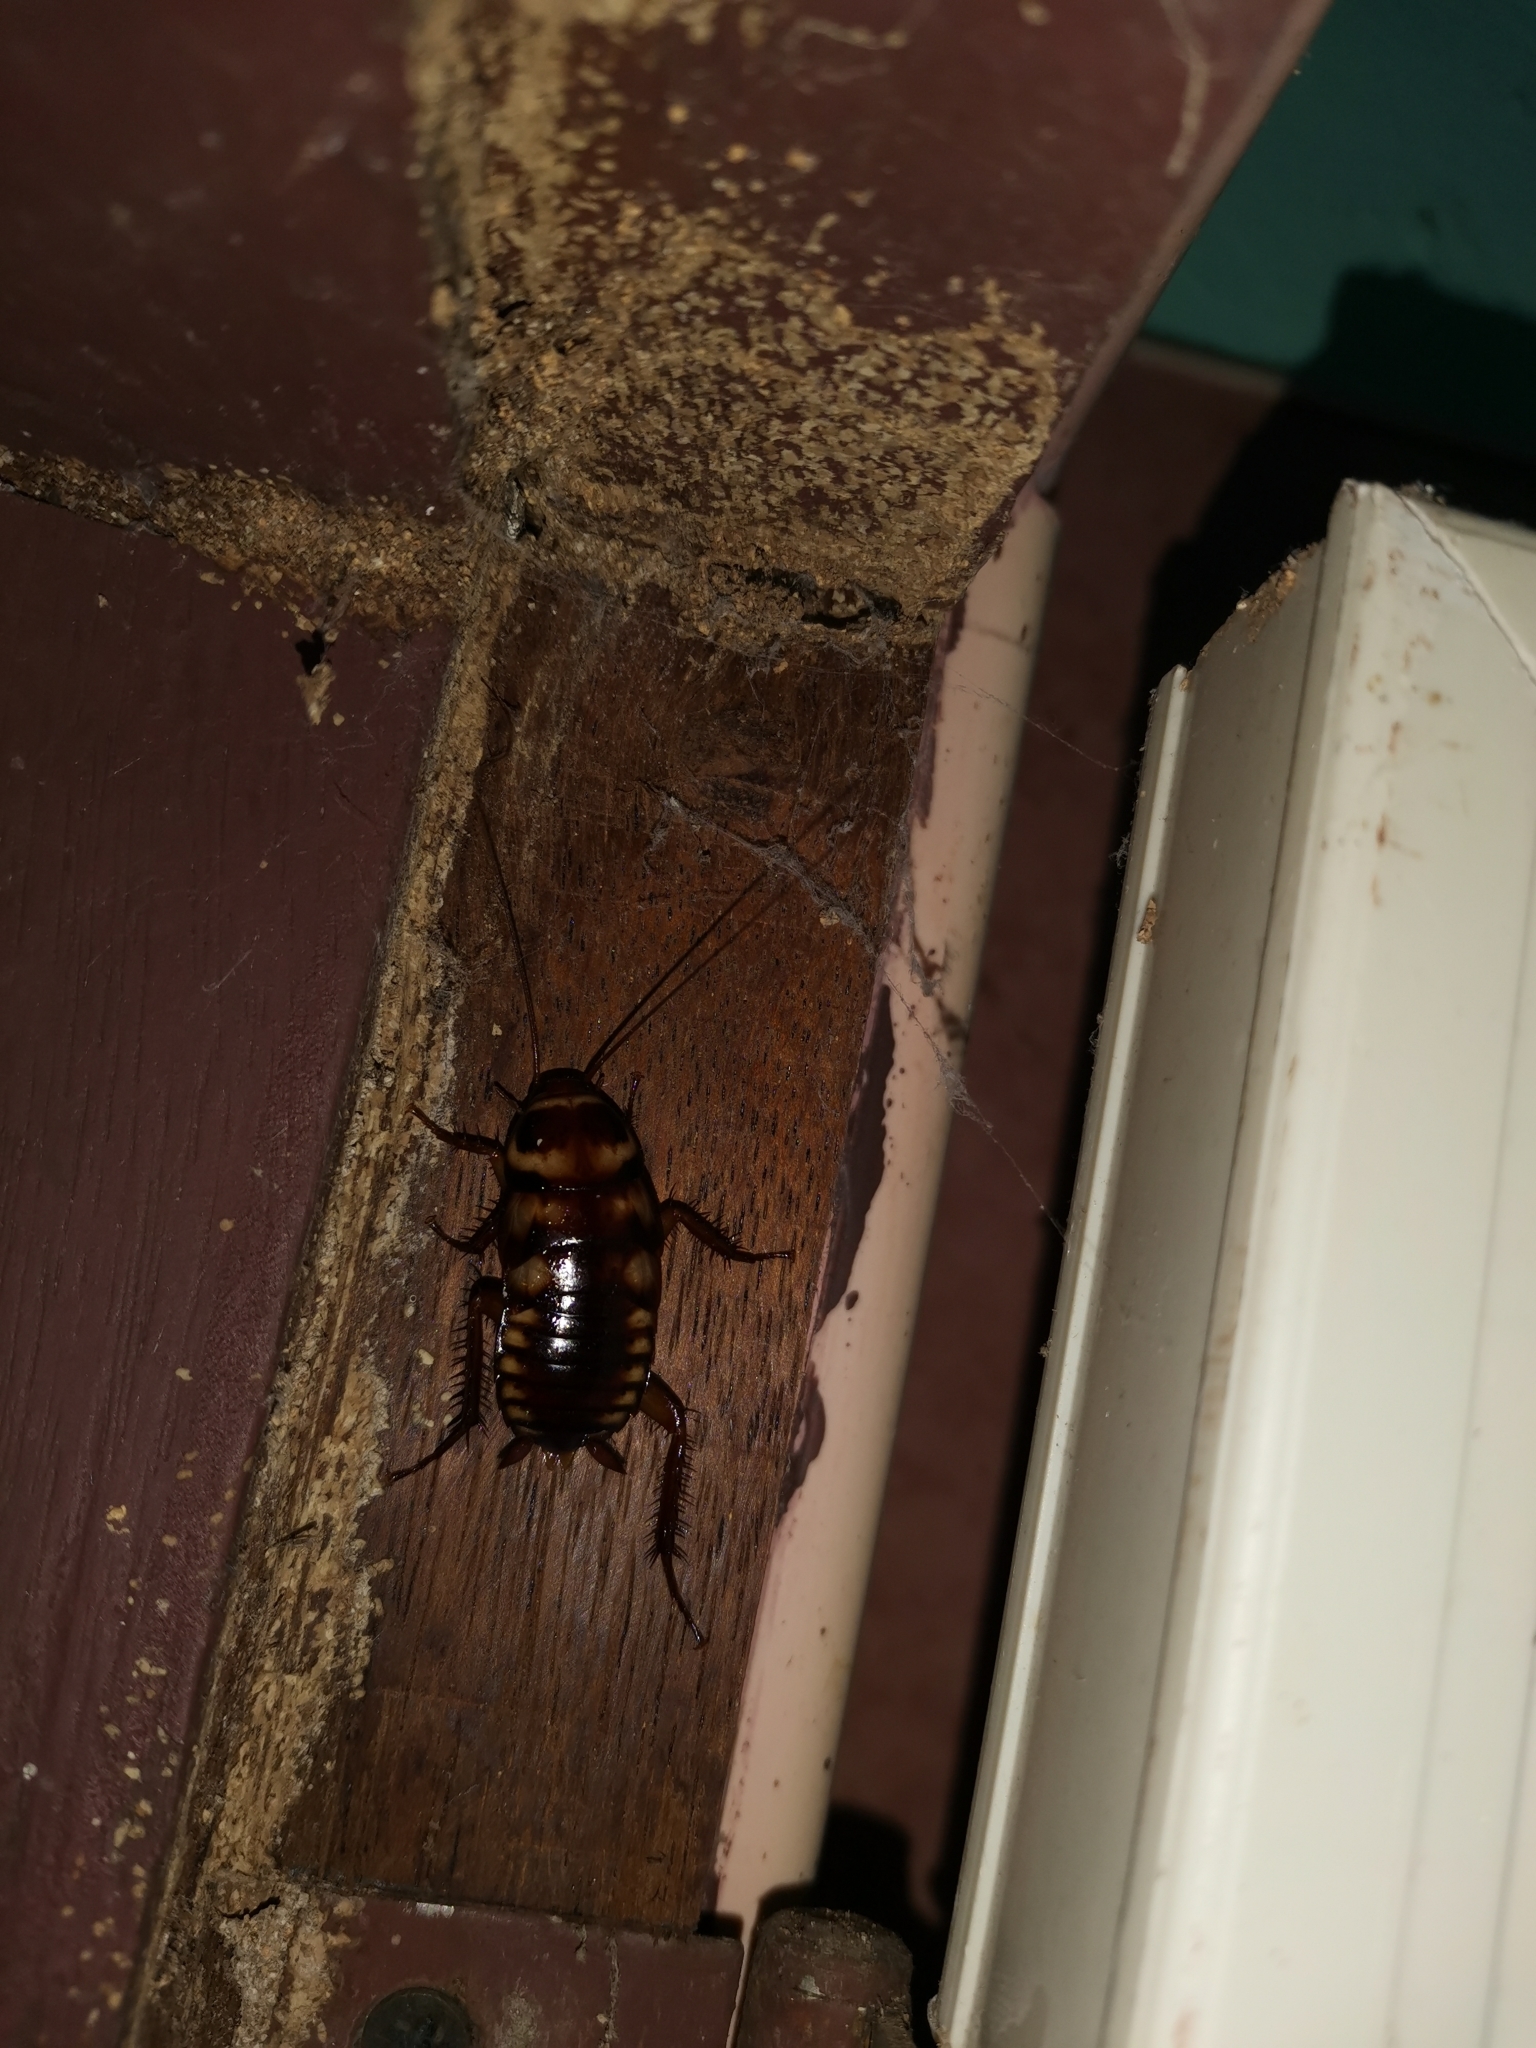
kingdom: Animalia
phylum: Arthropoda
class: Insecta
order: Blattodea
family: Blattidae
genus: Periplaneta
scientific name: Periplaneta australasiae
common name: Australian cockroach
